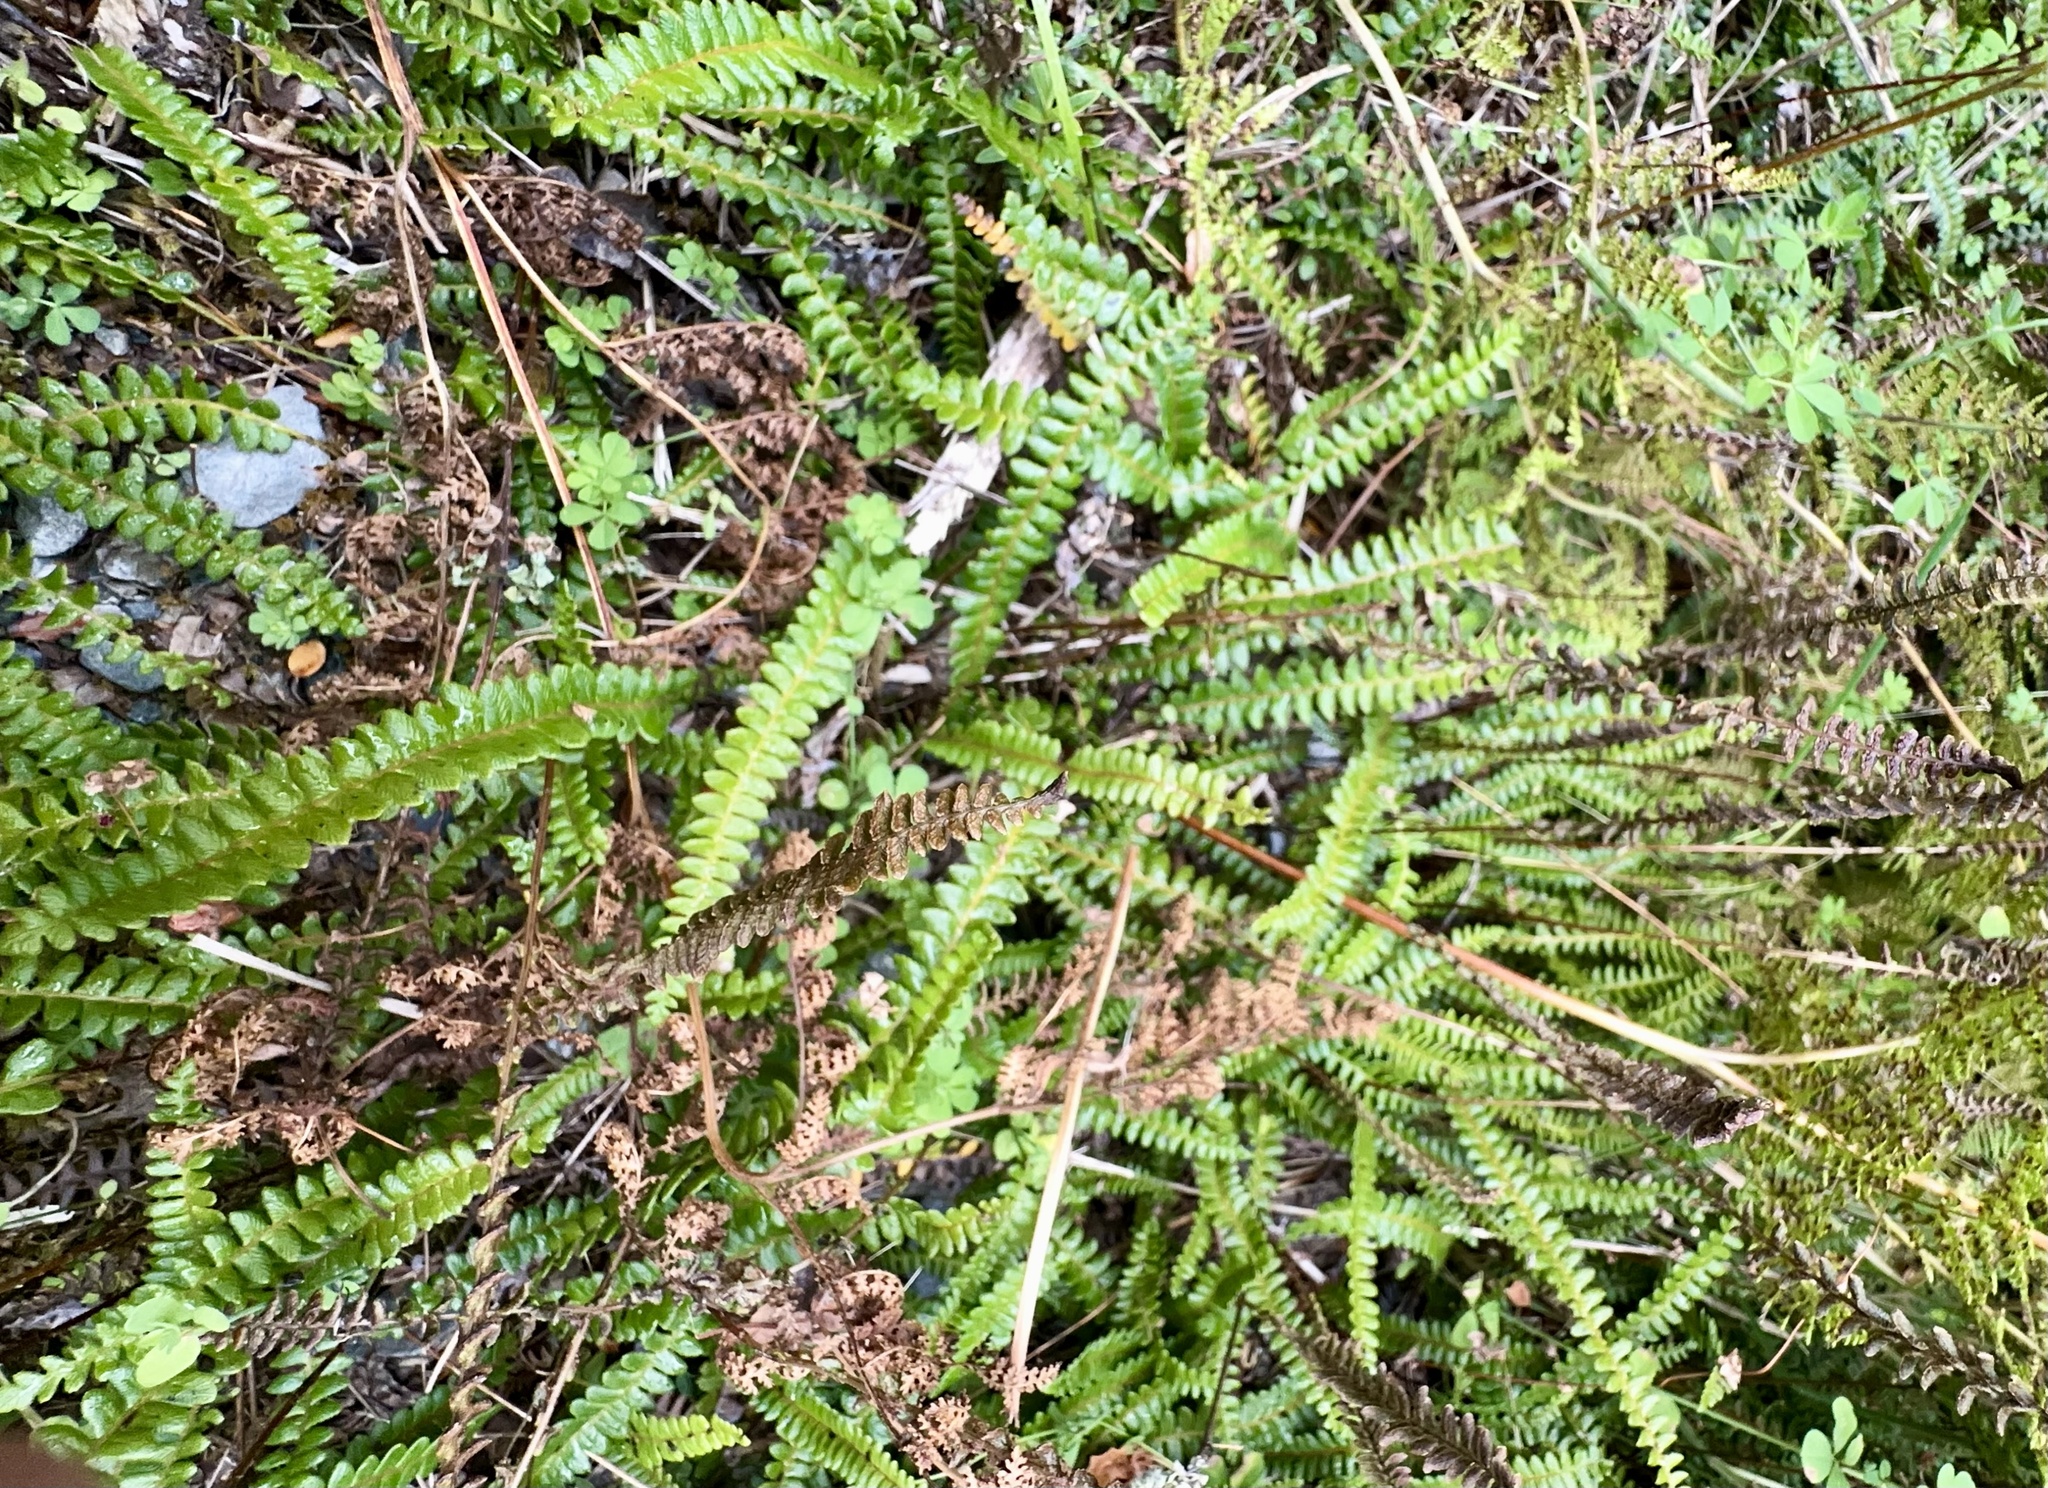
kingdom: Plantae
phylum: Tracheophyta
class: Polypodiopsida
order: Polypodiales
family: Blechnaceae
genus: Austroblechnum
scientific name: Austroblechnum penna-marina
